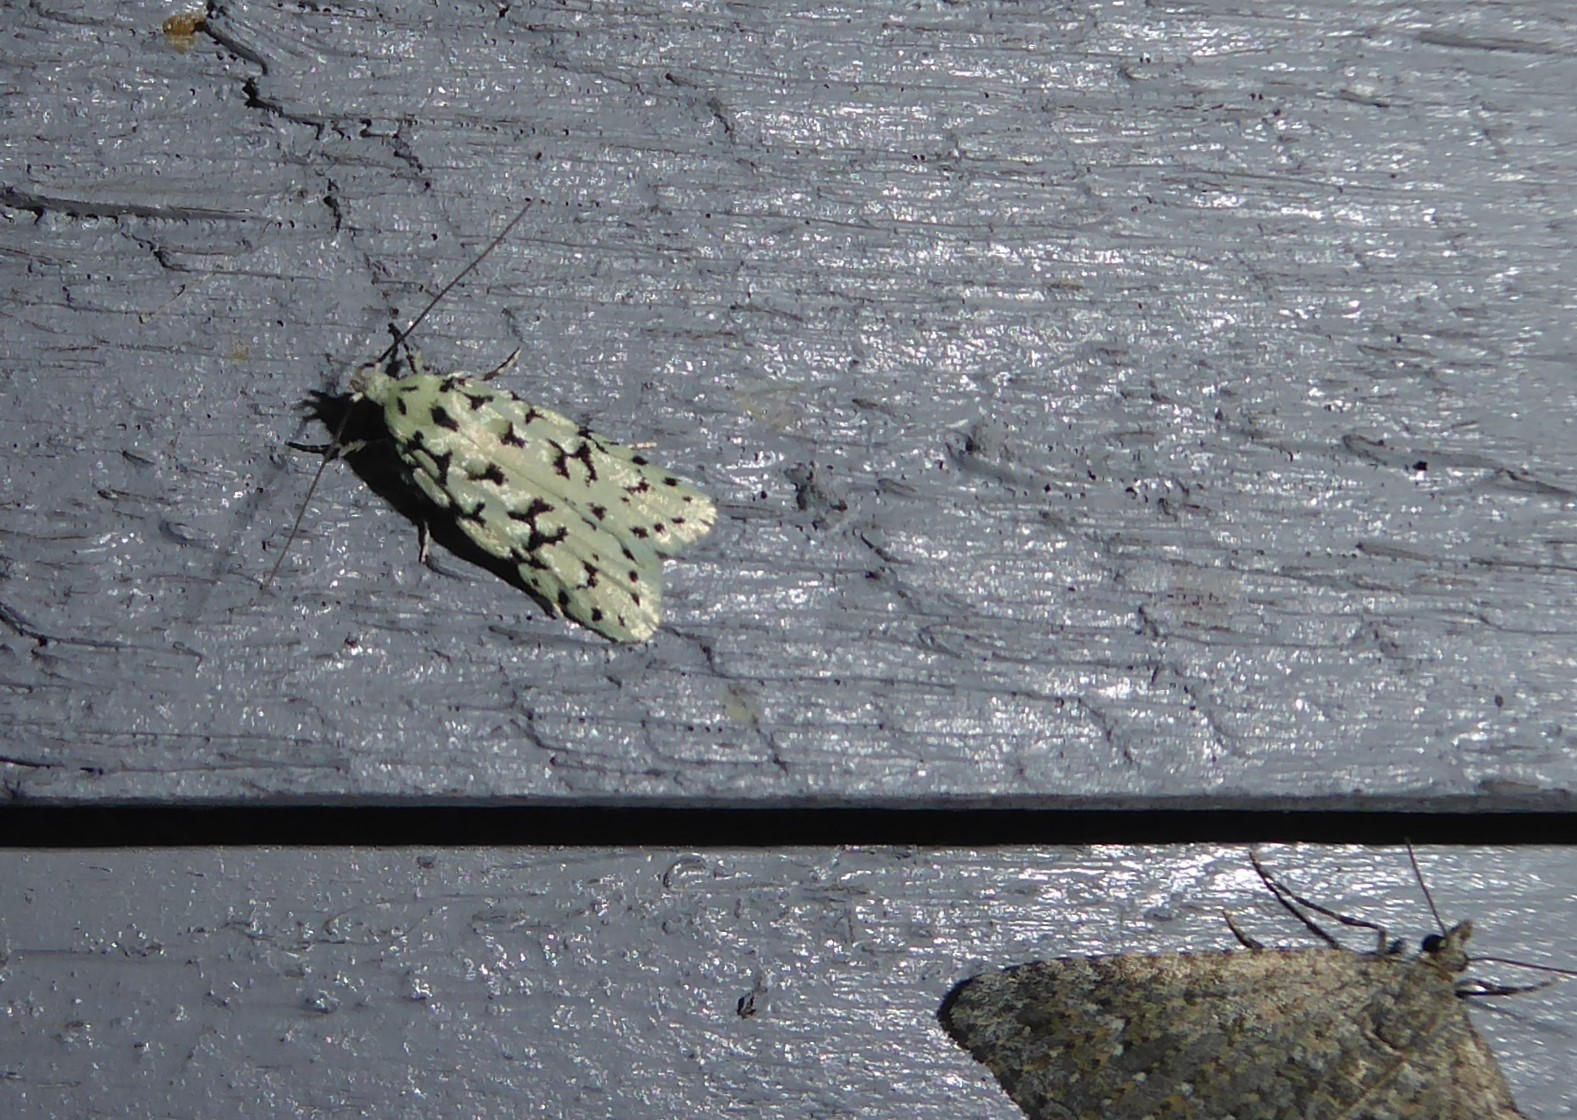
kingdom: Animalia
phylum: Arthropoda
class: Insecta
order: Lepidoptera
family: Oecophoridae
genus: Izatha
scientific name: Izatha huttoni
